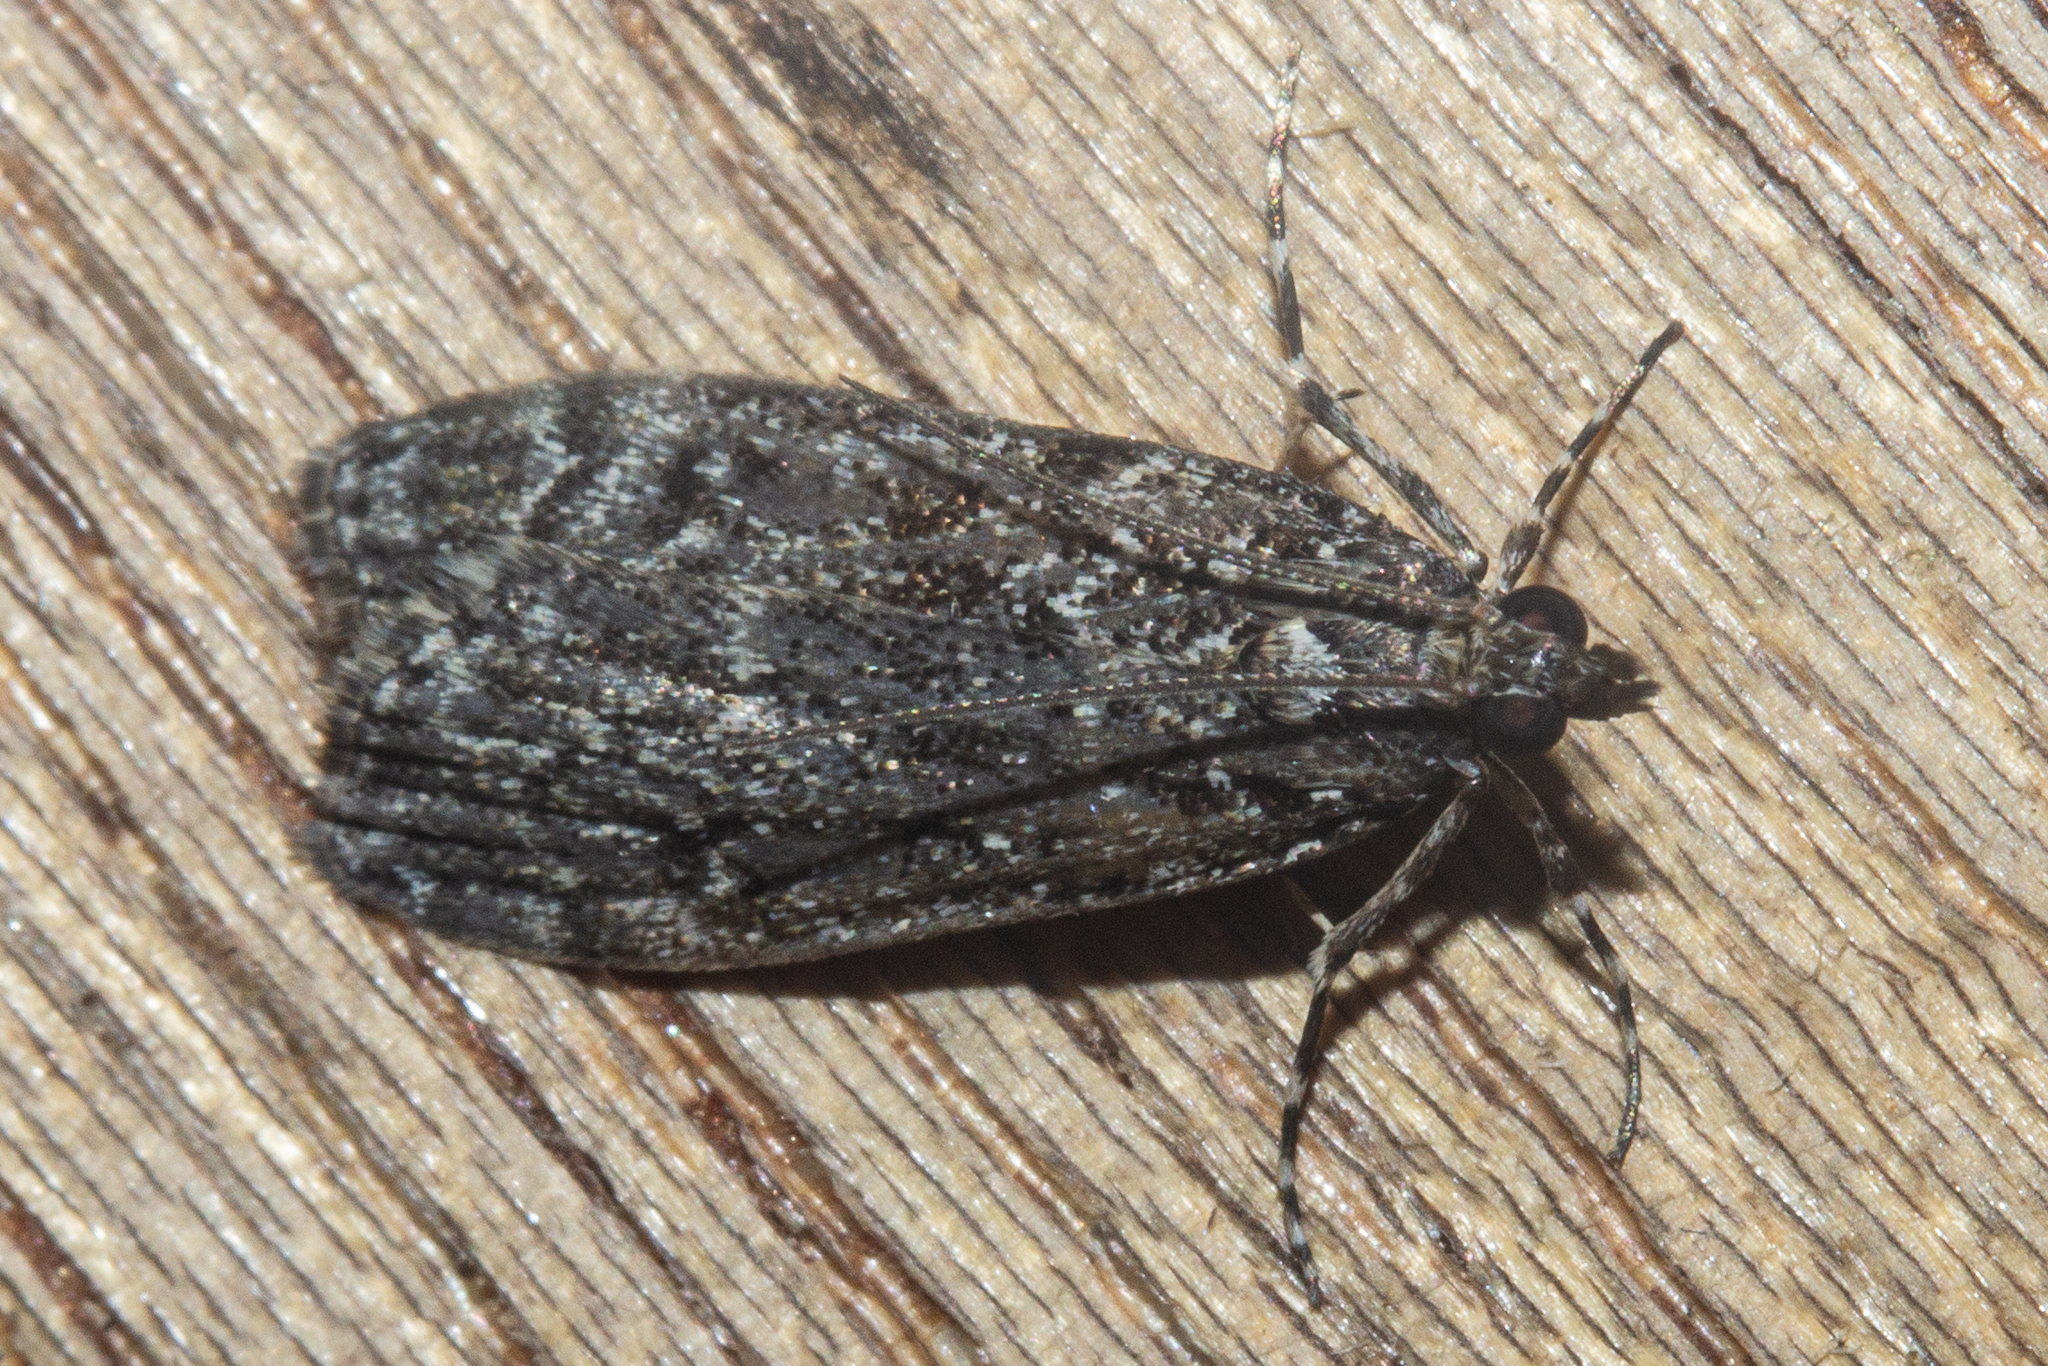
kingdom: Animalia
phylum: Arthropoda
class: Insecta
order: Lepidoptera
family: Crambidae
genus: Eudonia
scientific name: Eudonia philerga
